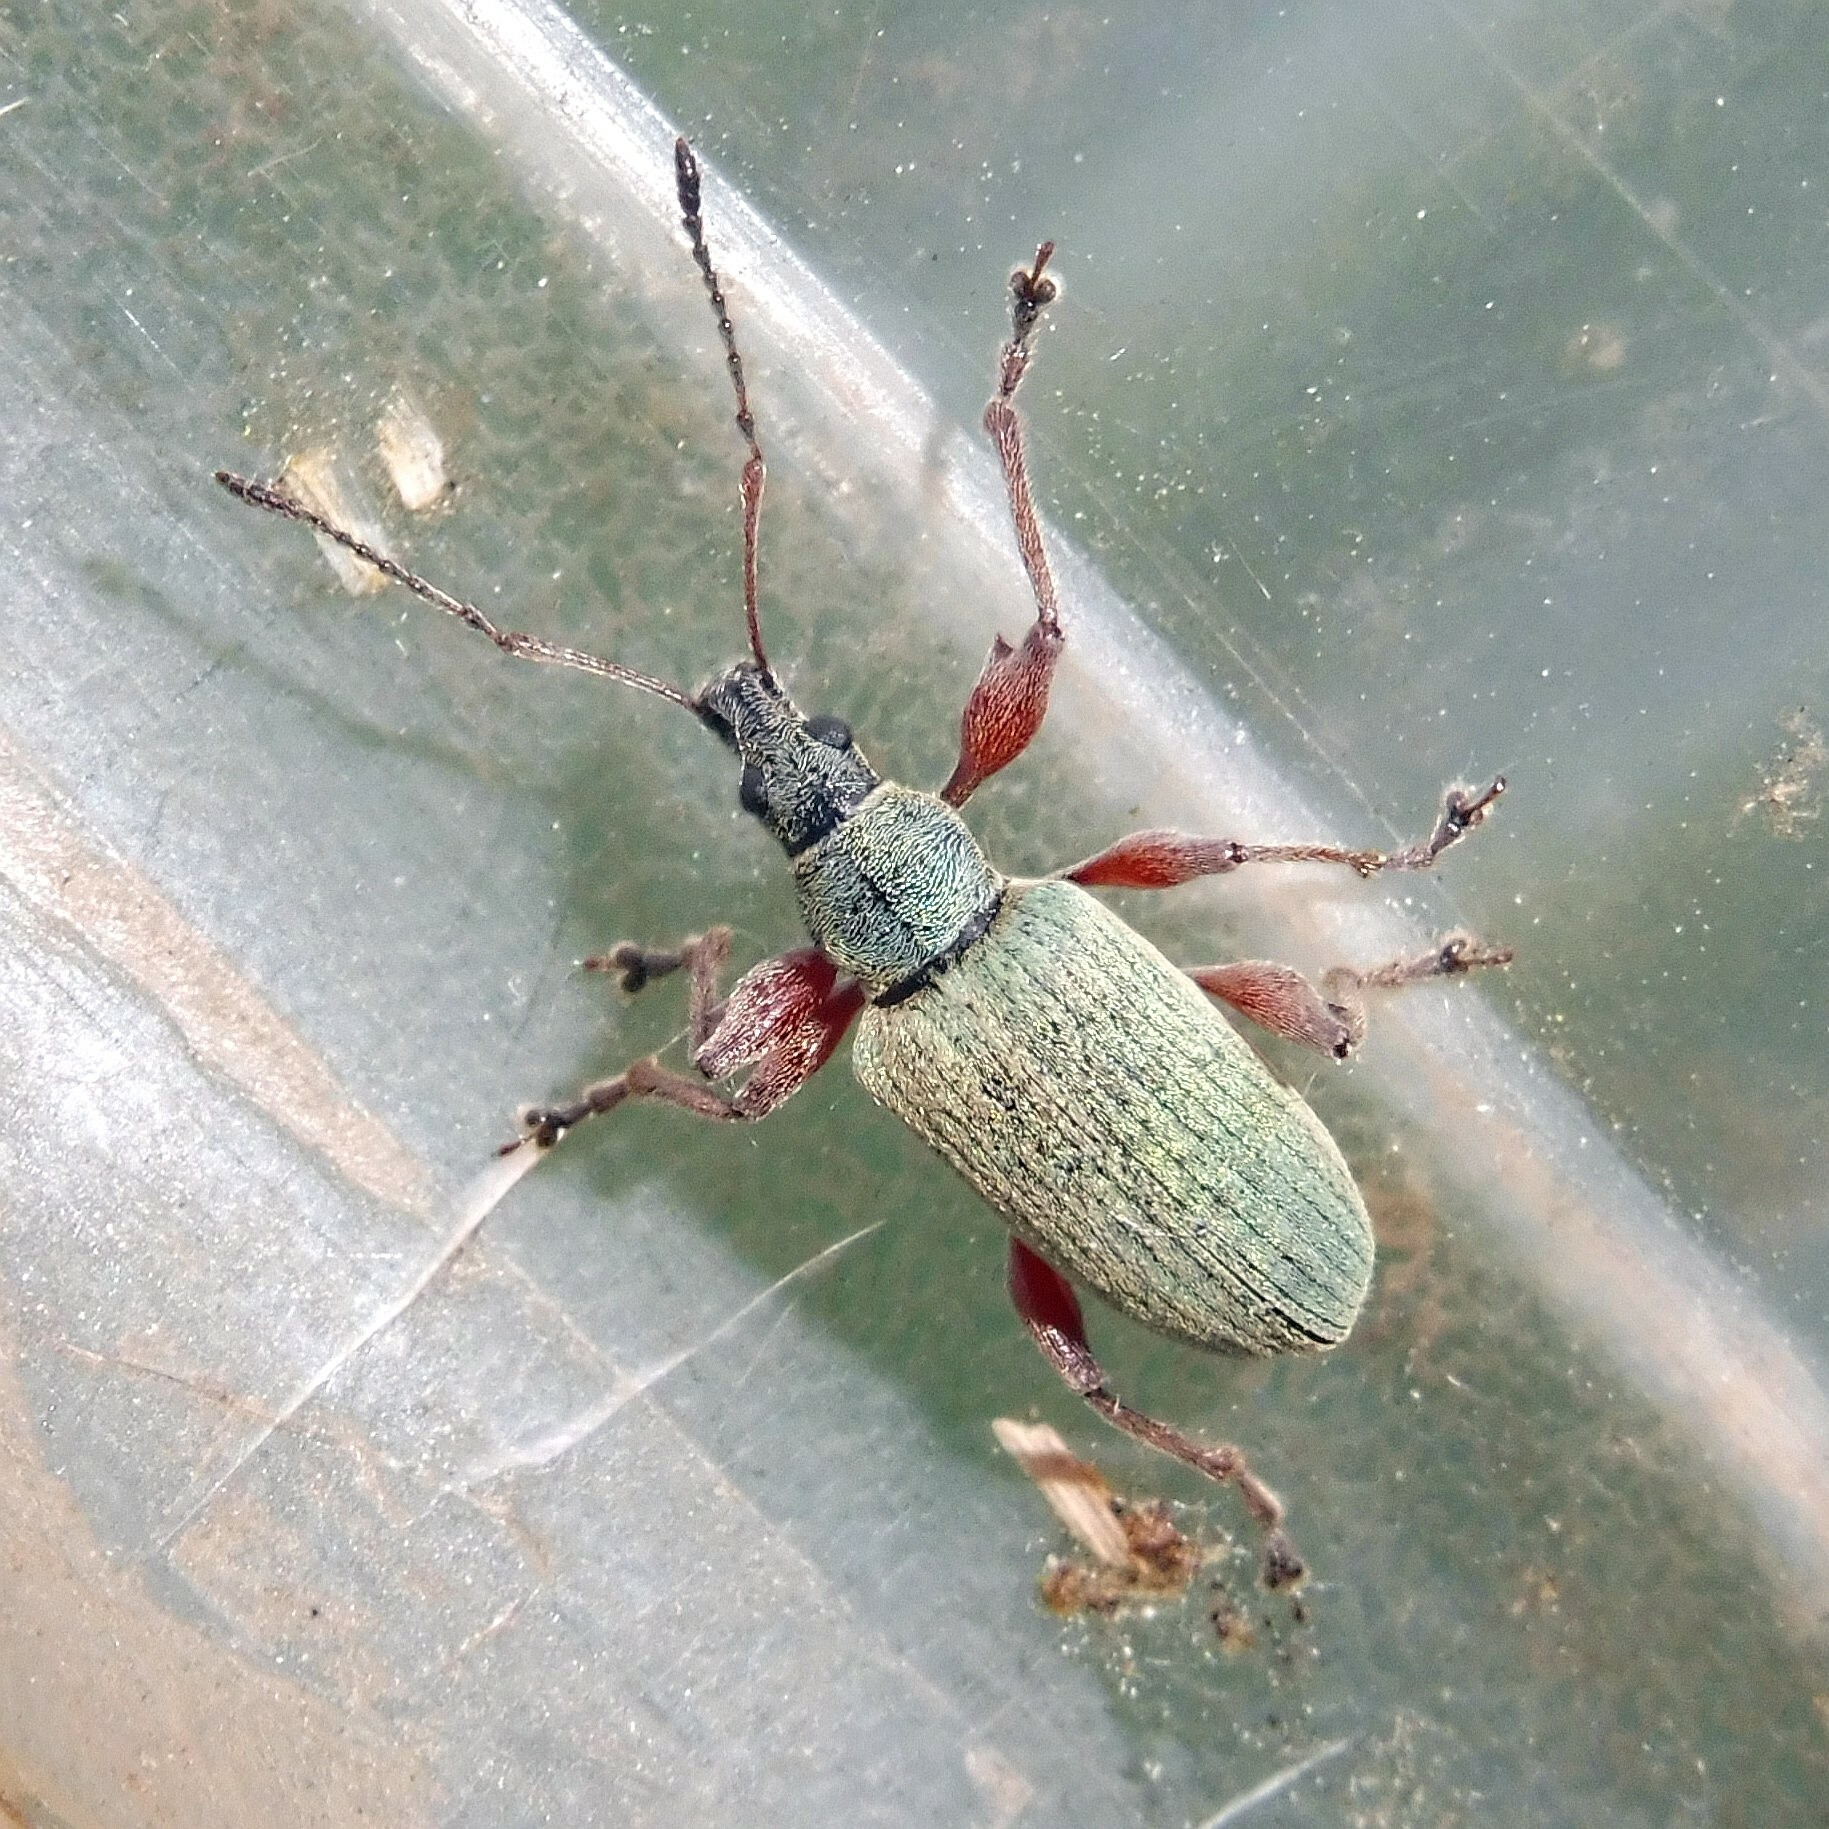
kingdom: Animalia
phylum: Arthropoda
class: Insecta
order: Coleoptera
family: Curculionidae
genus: Phyllobius
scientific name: Phyllobius glaucus
